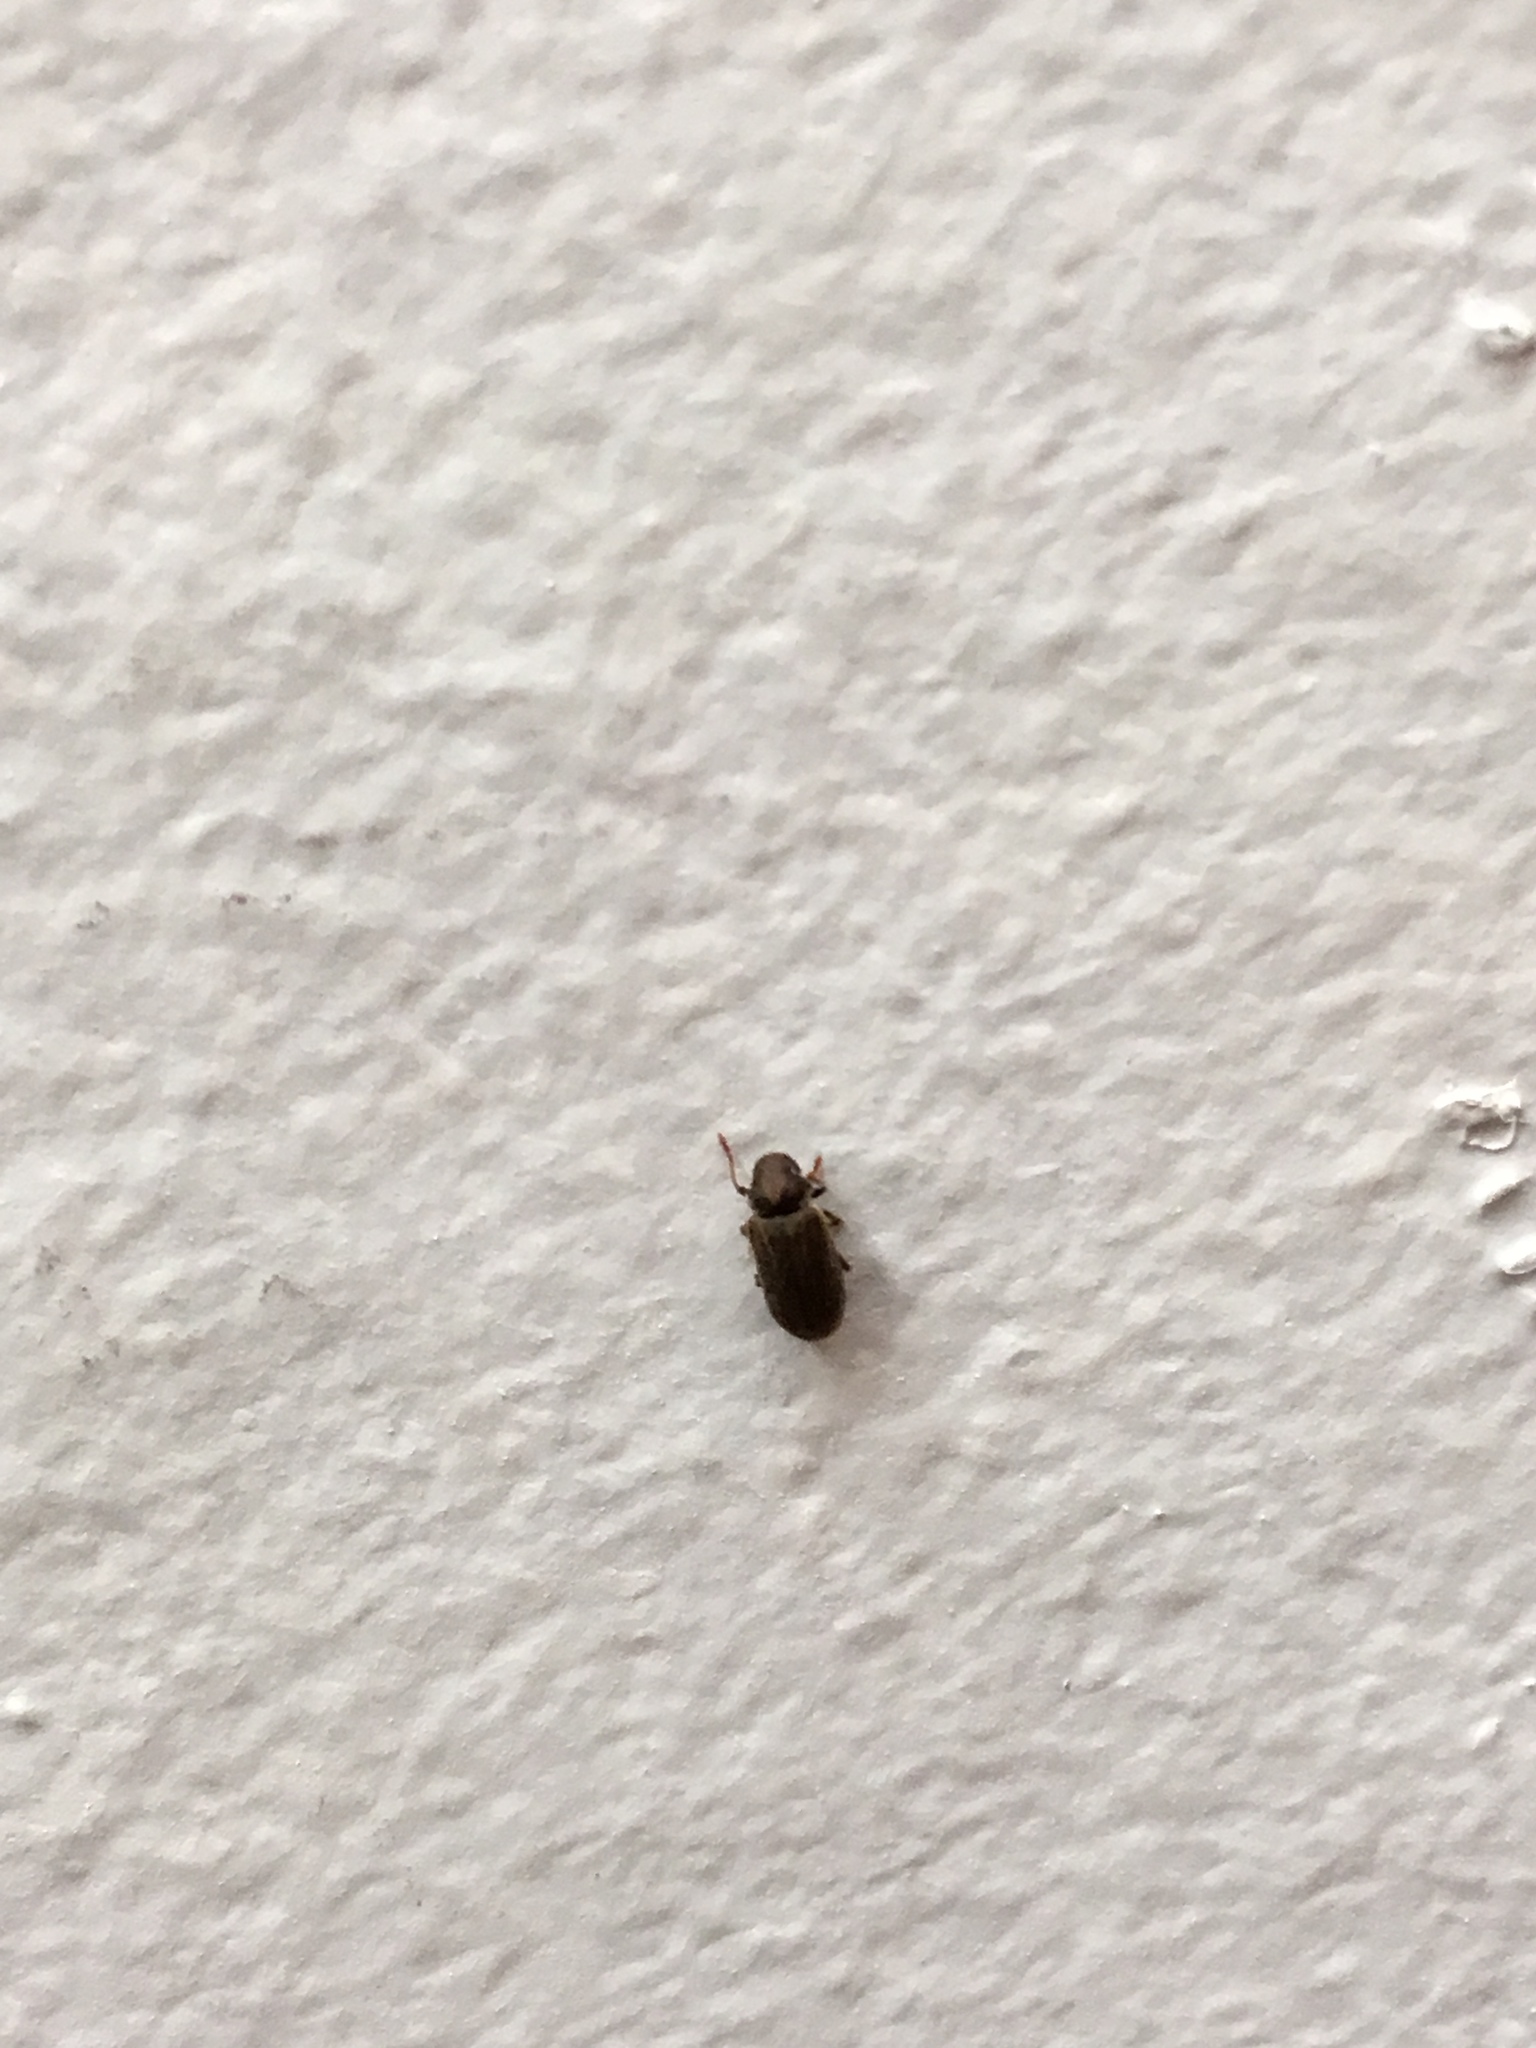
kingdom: Animalia
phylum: Arthropoda
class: Insecta
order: Coleoptera
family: Anobiidae
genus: Anobium
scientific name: Anobium punctatum
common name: Furniture beetle
